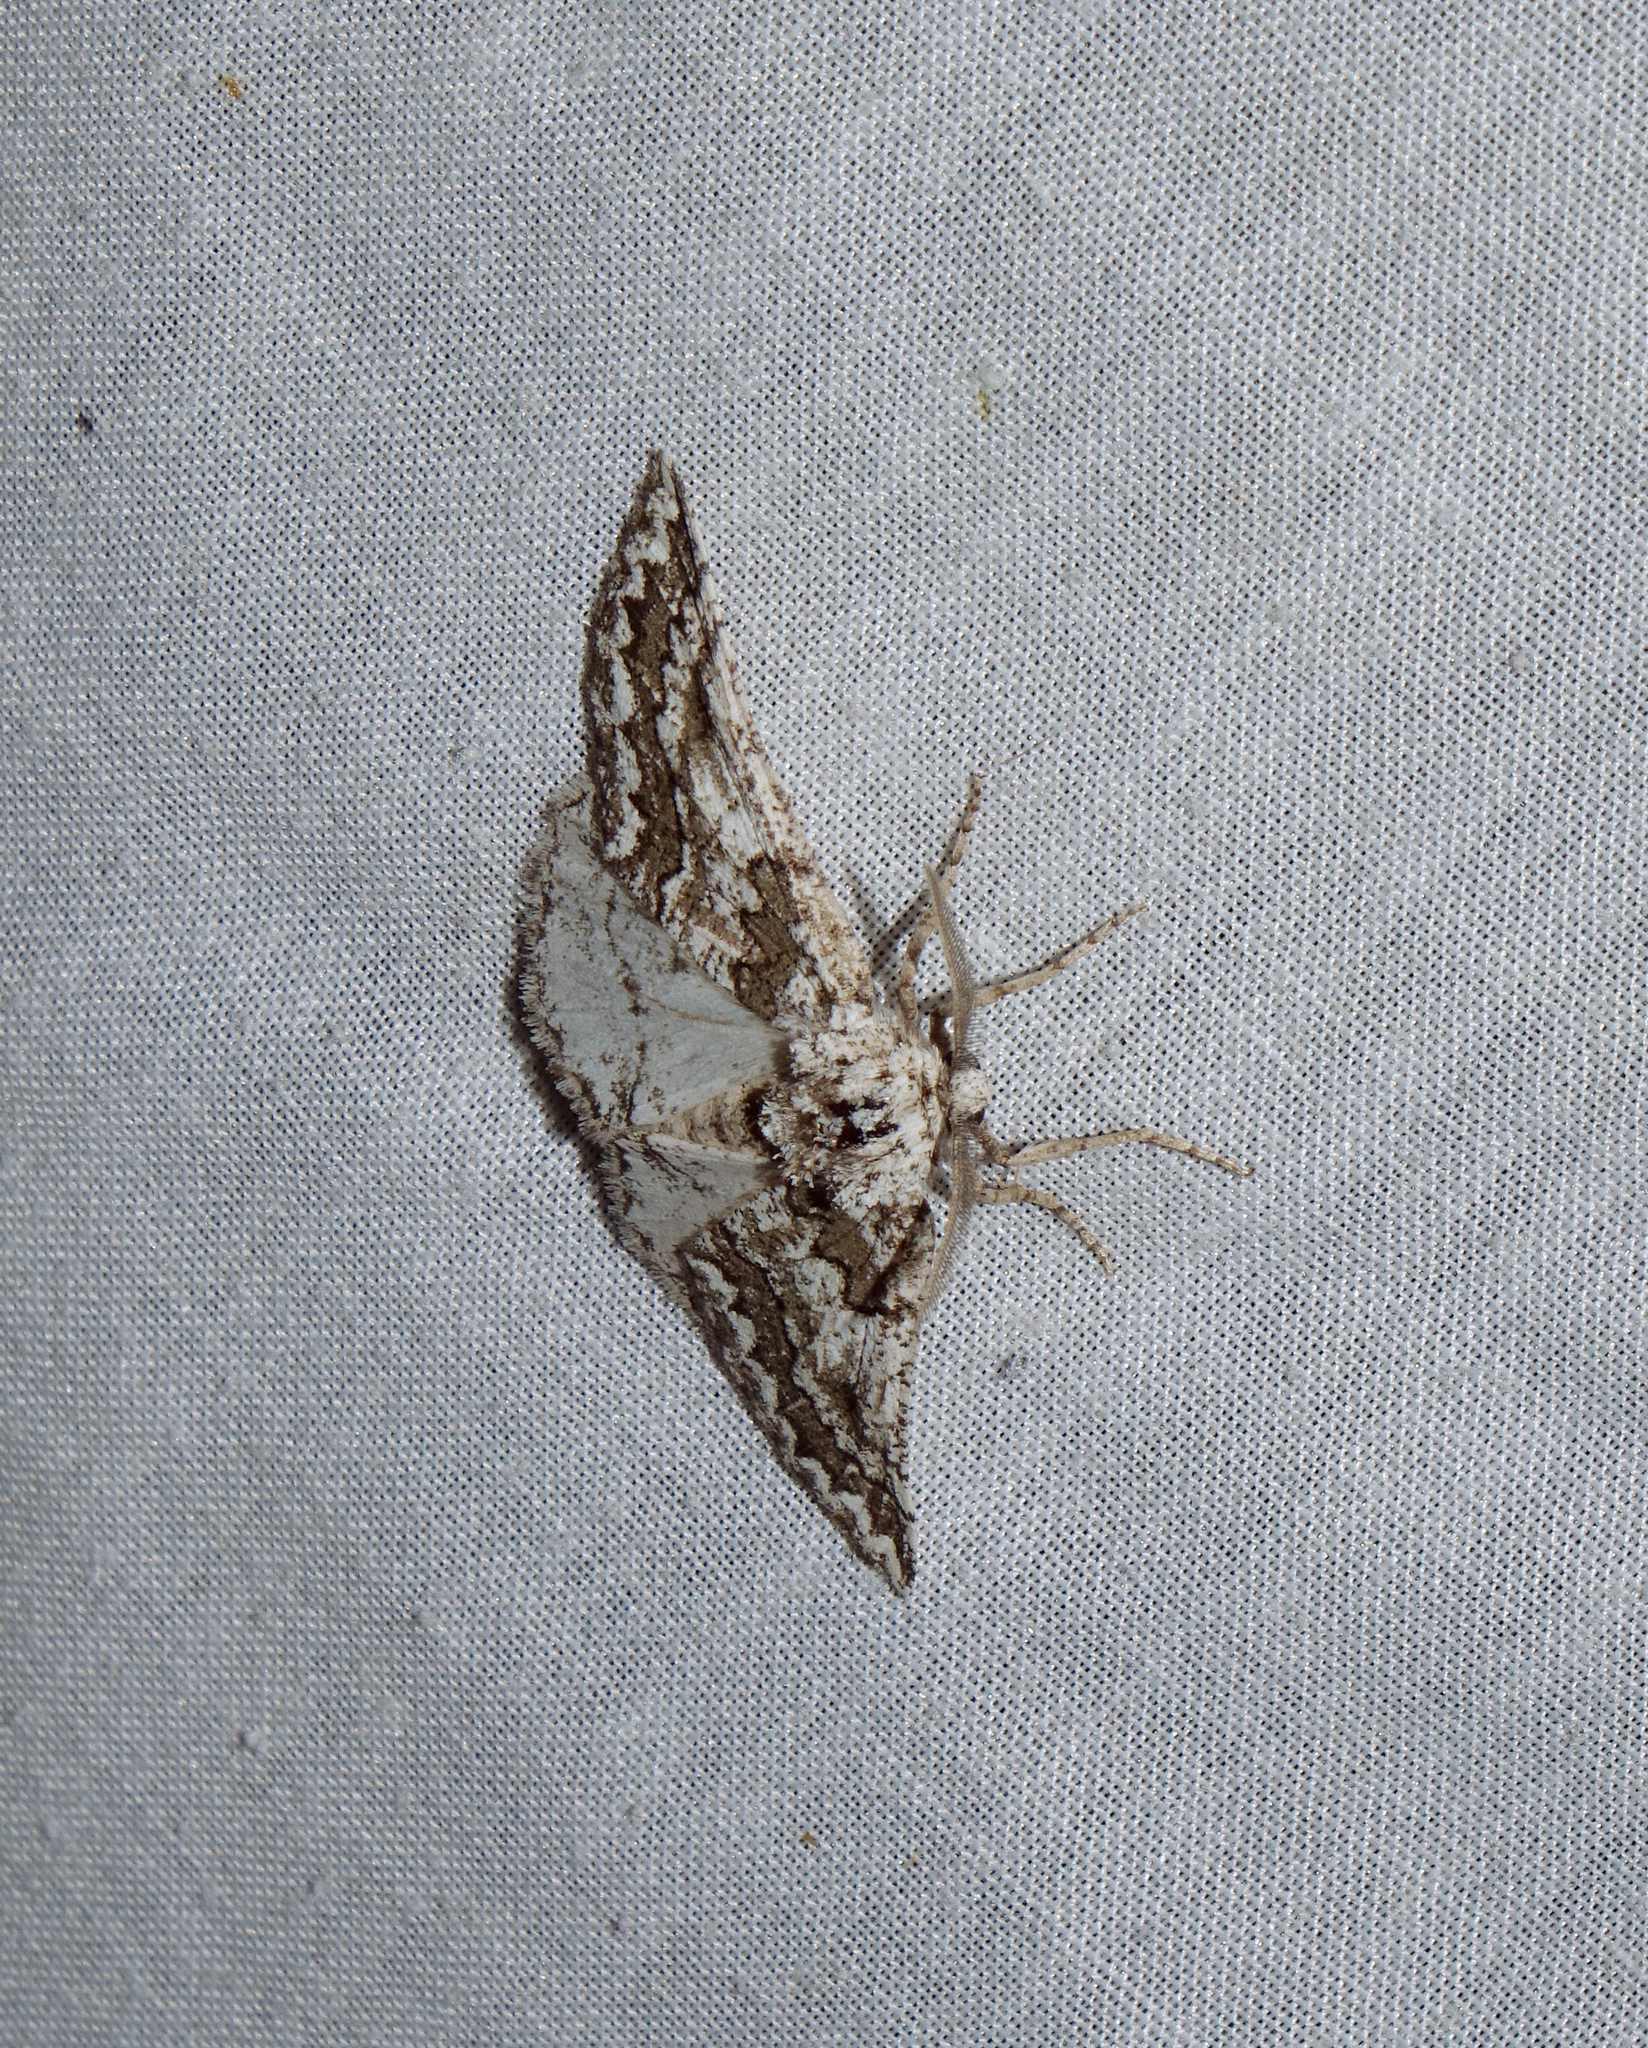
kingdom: Animalia
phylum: Arthropoda
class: Insecta
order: Lepidoptera
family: Geometridae
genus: Phaselia
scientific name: Phaselia serrularia
